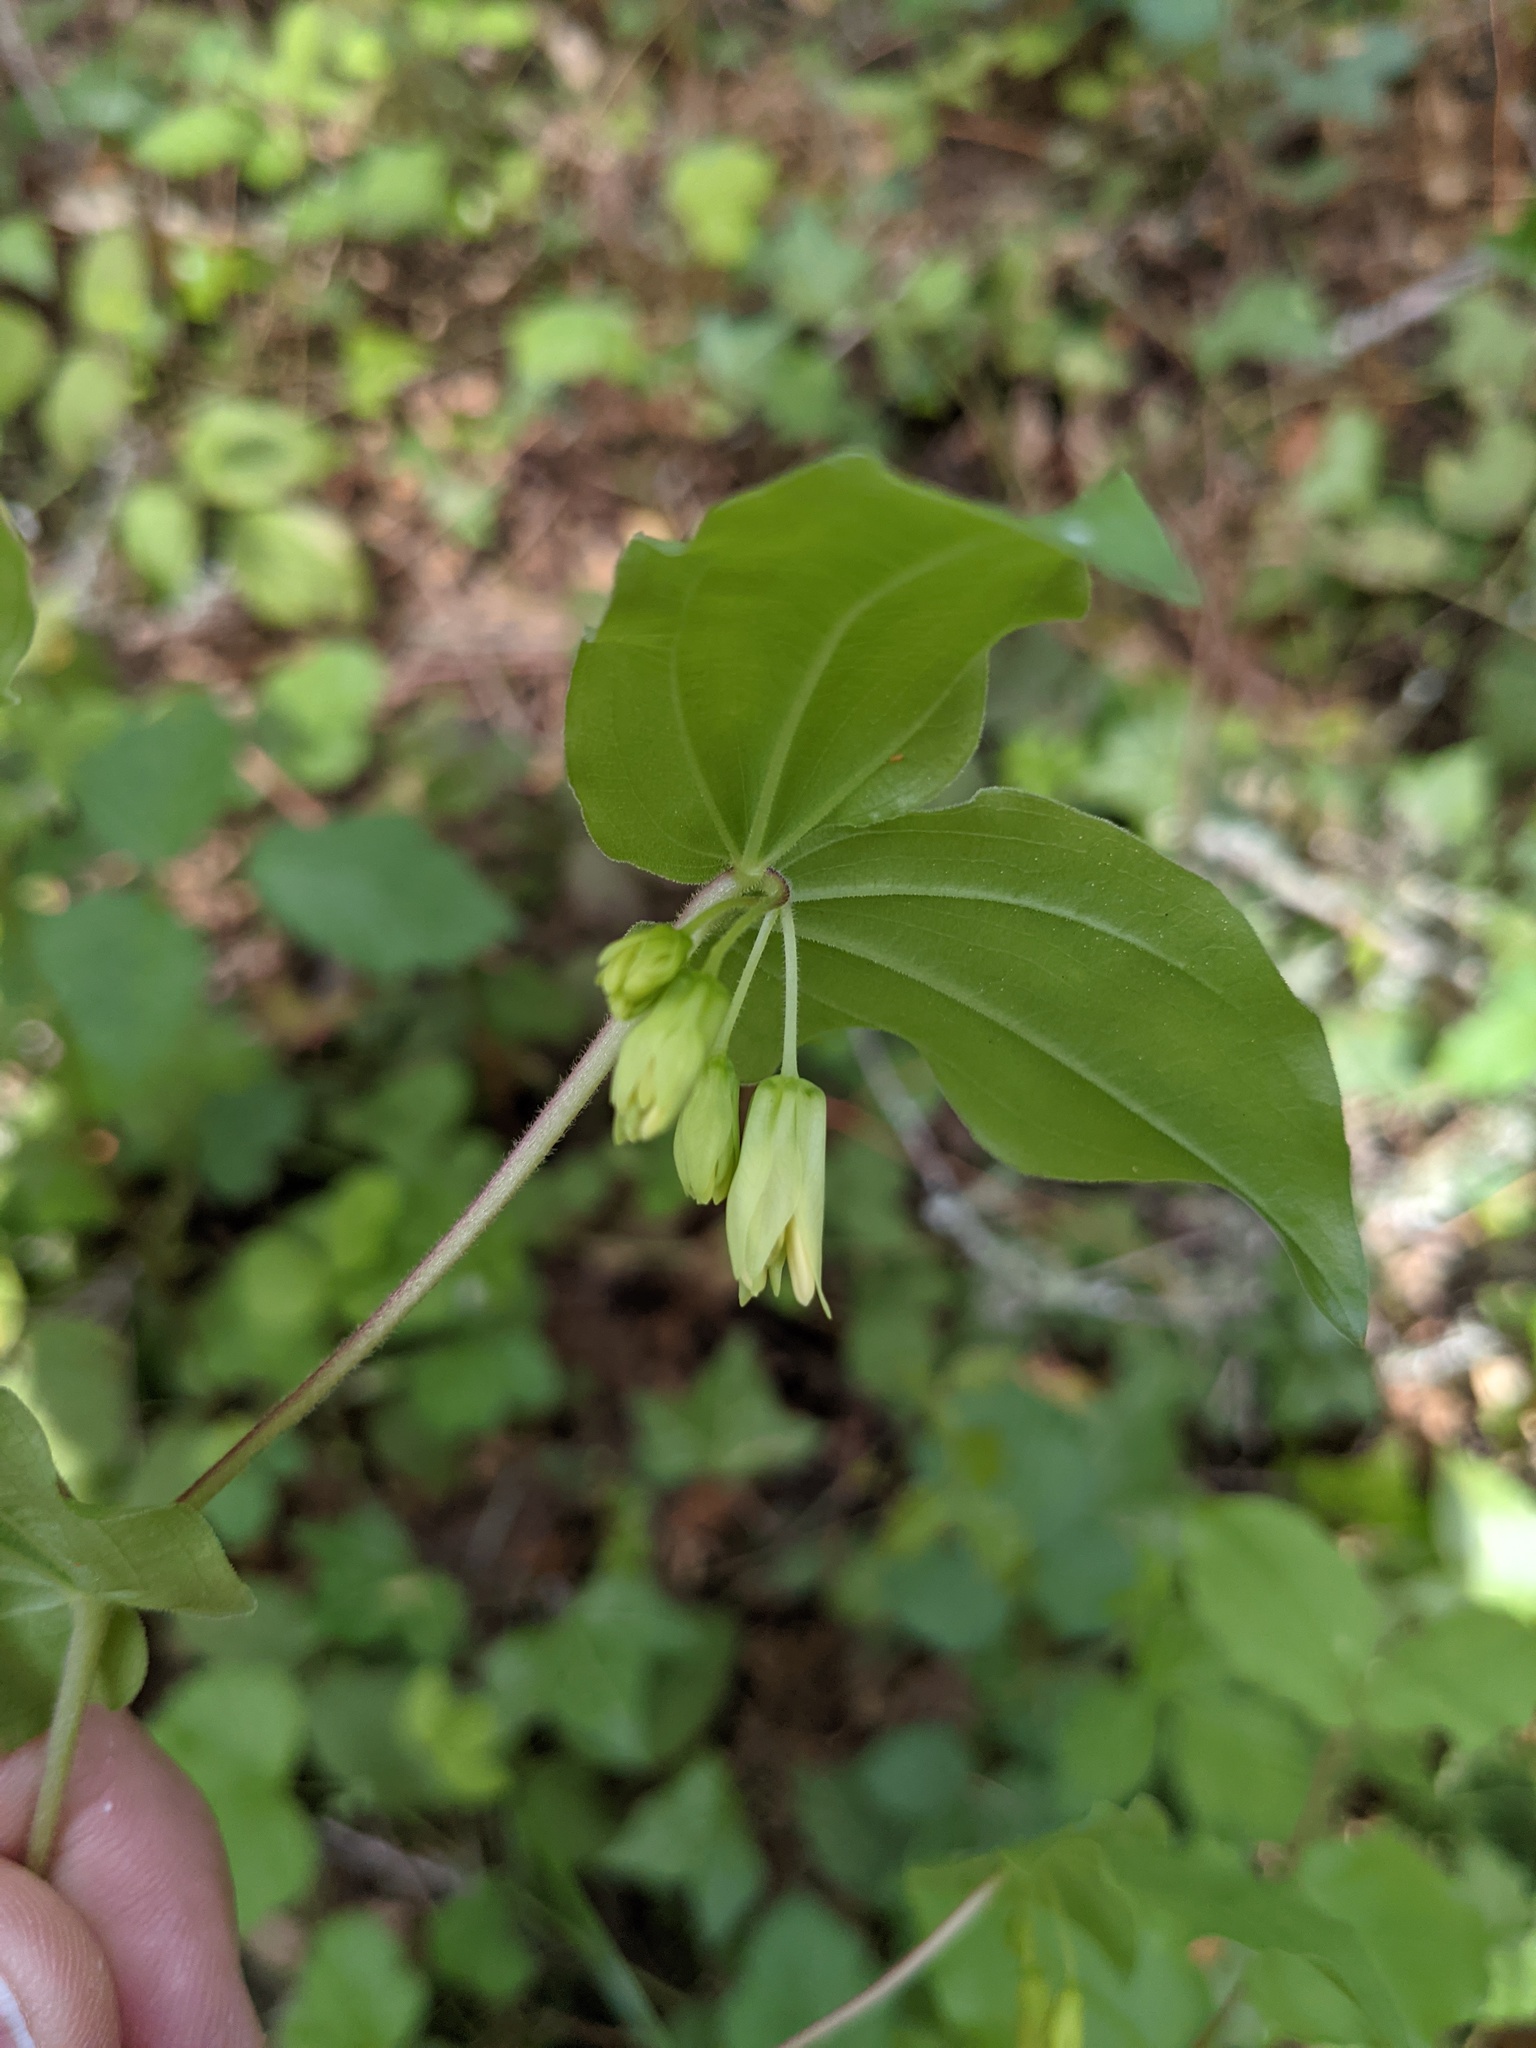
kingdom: Plantae
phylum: Tracheophyta
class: Liliopsida
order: Liliales
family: Liliaceae
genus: Prosartes
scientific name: Prosartes hookeri
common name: Fairy-bells
